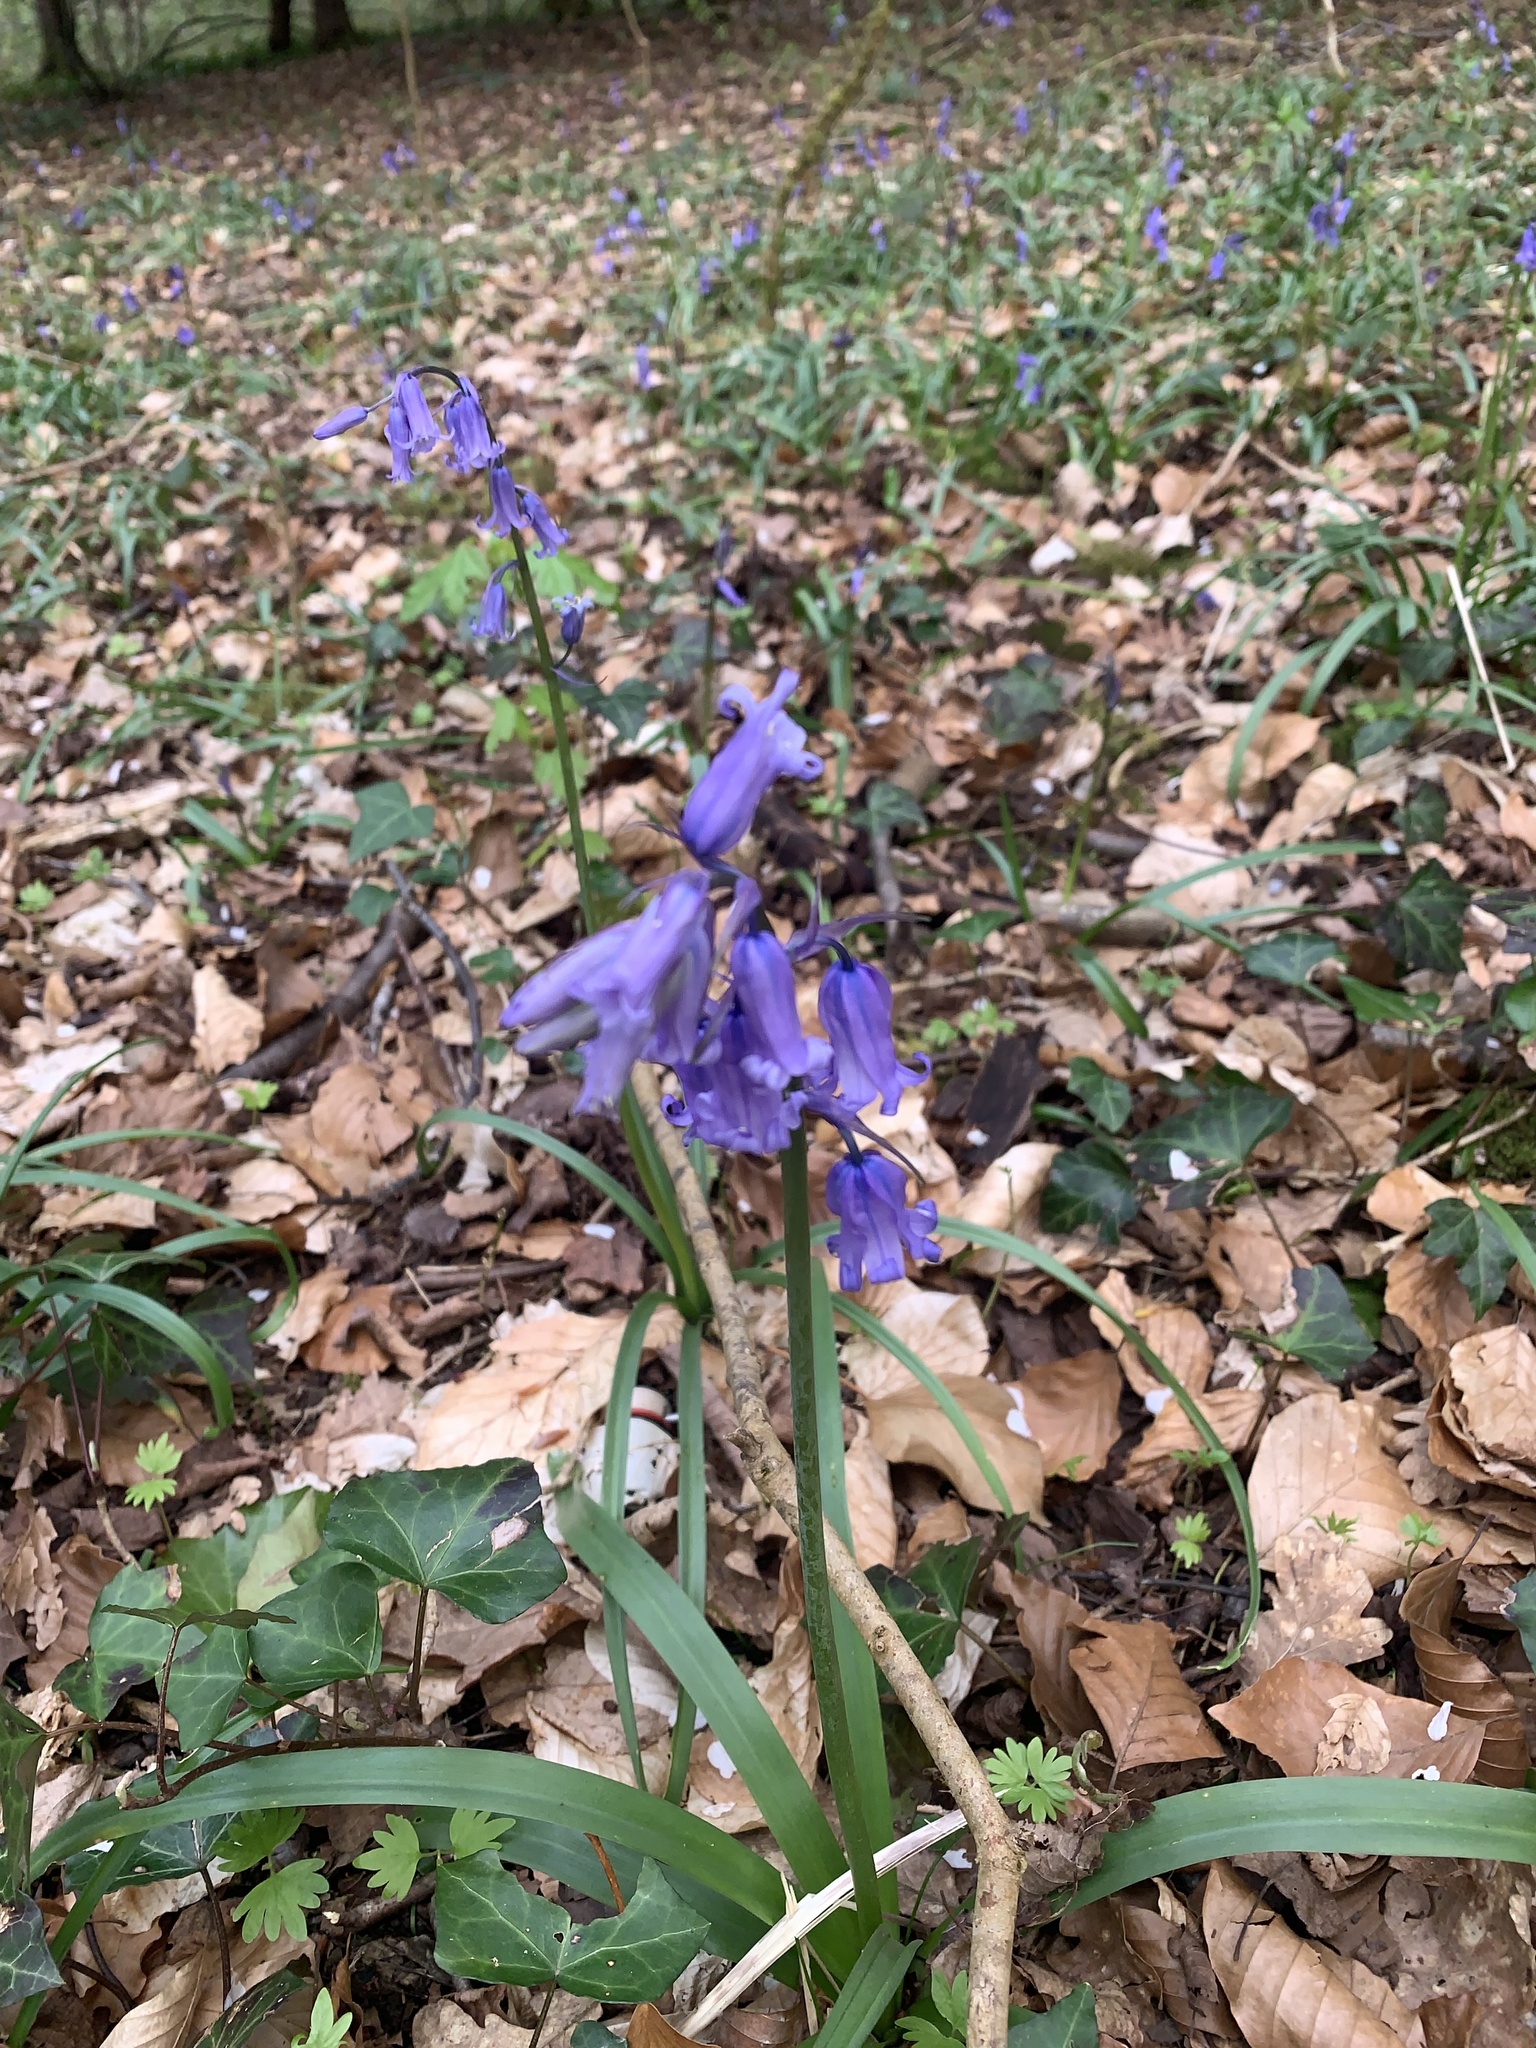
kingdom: Plantae
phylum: Tracheophyta
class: Liliopsida
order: Asparagales
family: Asparagaceae
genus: Hyacinthoides
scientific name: Hyacinthoides non-scripta
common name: Bluebell
